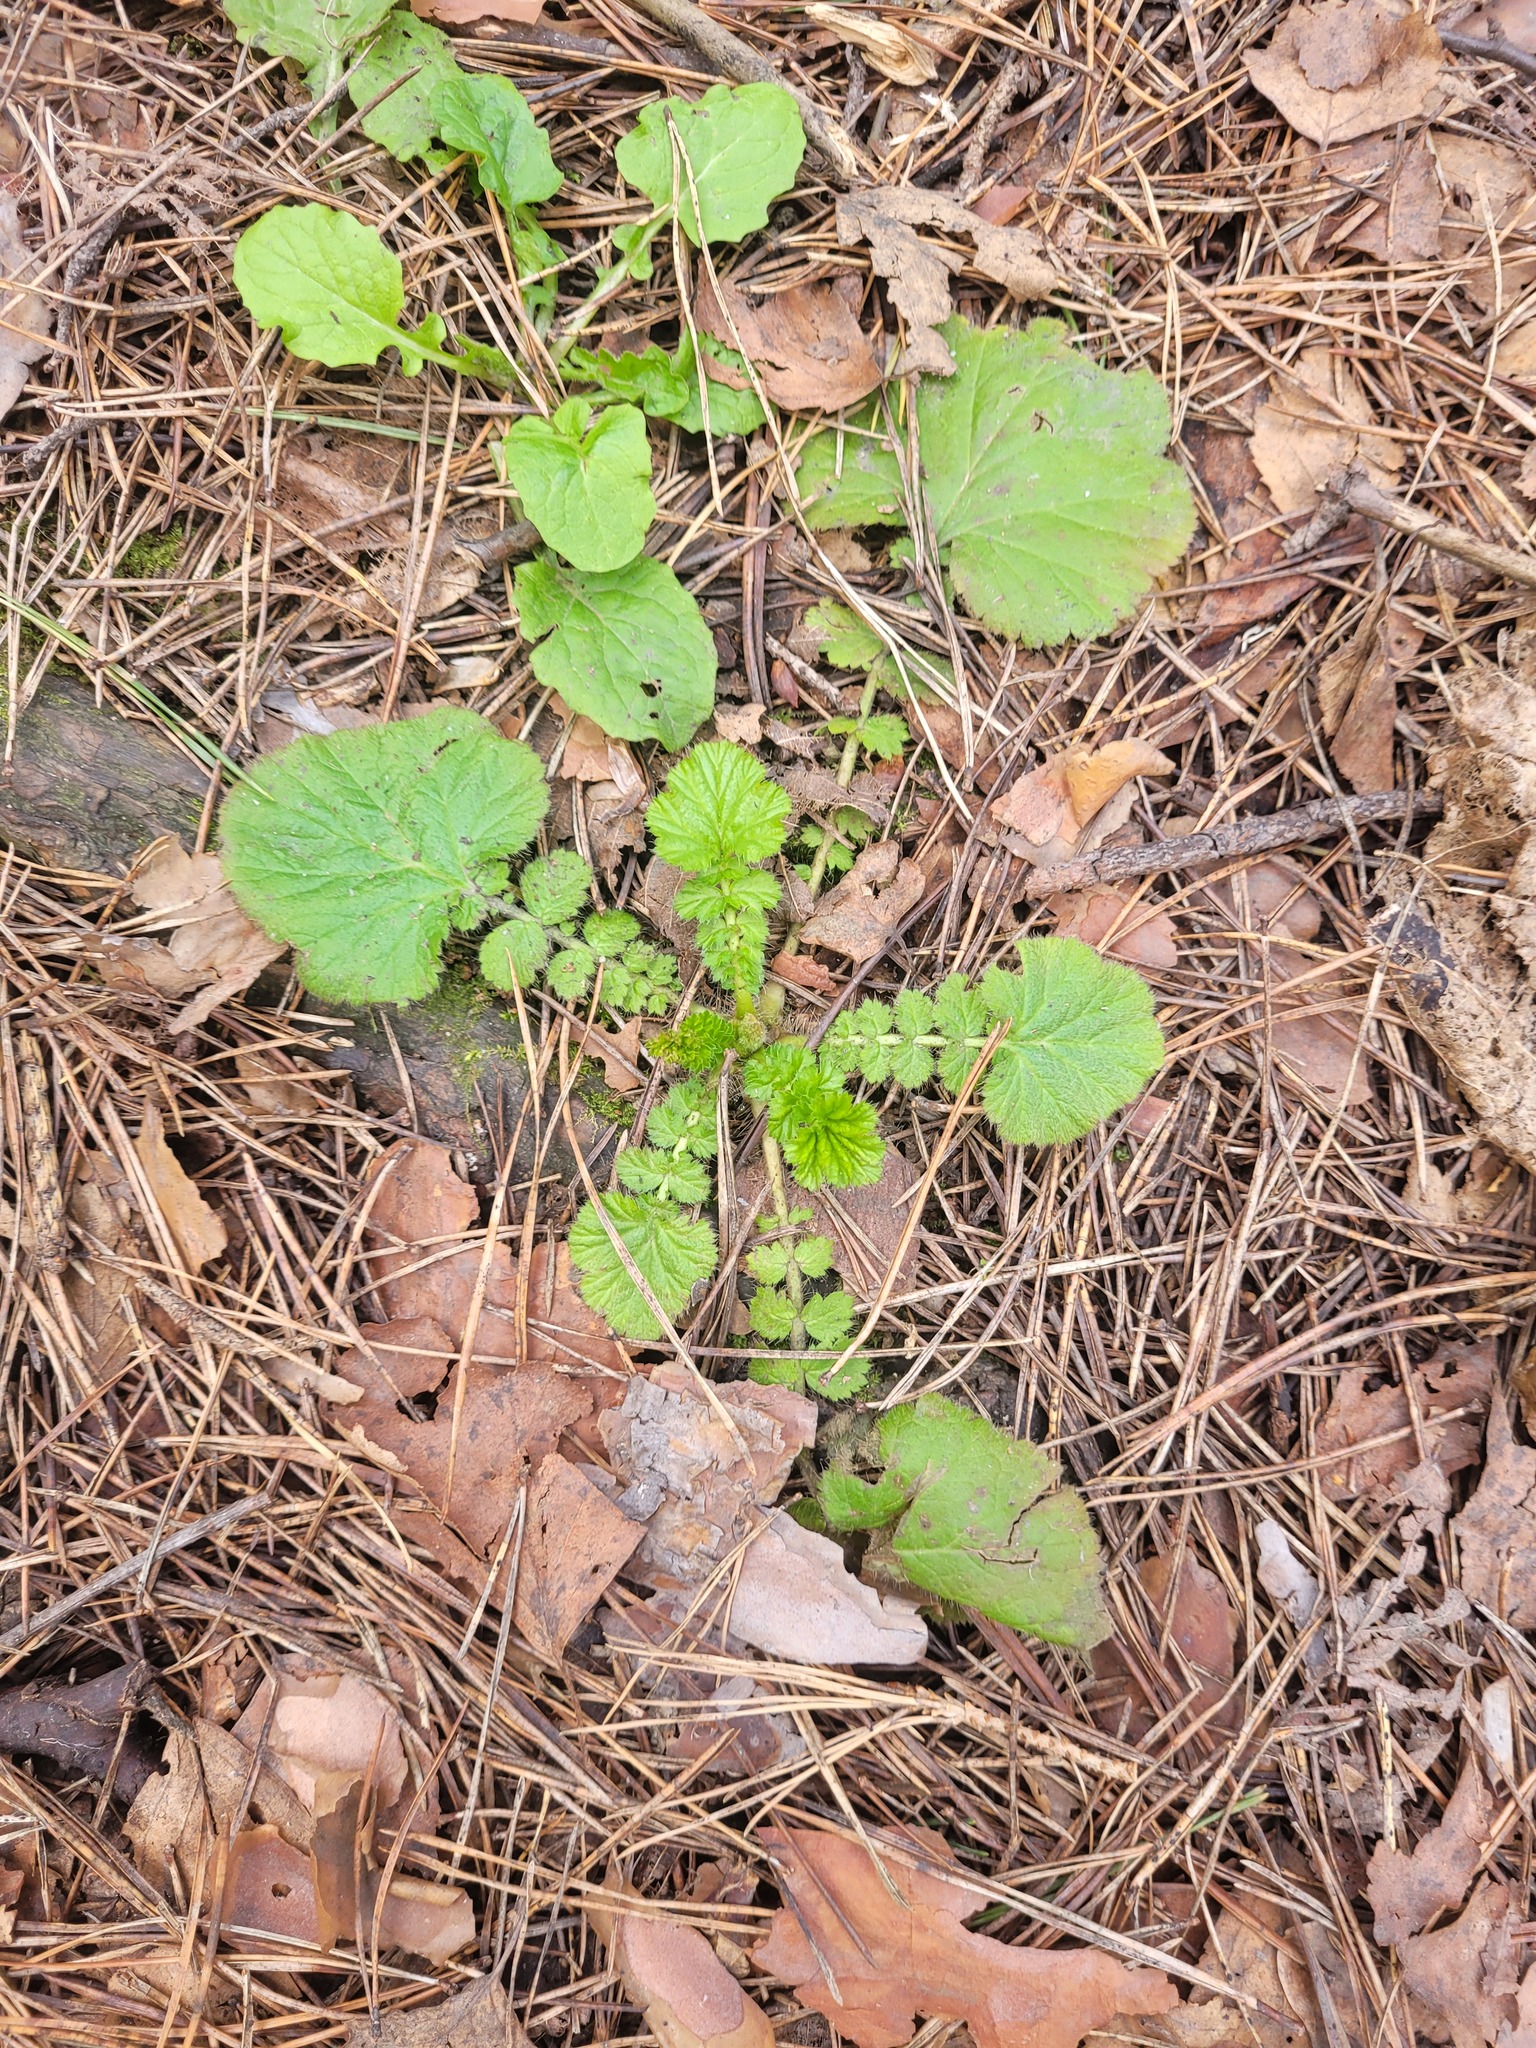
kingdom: Plantae
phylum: Tracheophyta
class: Magnoliopsida
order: Rosales
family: Rosaceae
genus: Geum
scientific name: Geum macrophyllum
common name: Large-leaved avens
